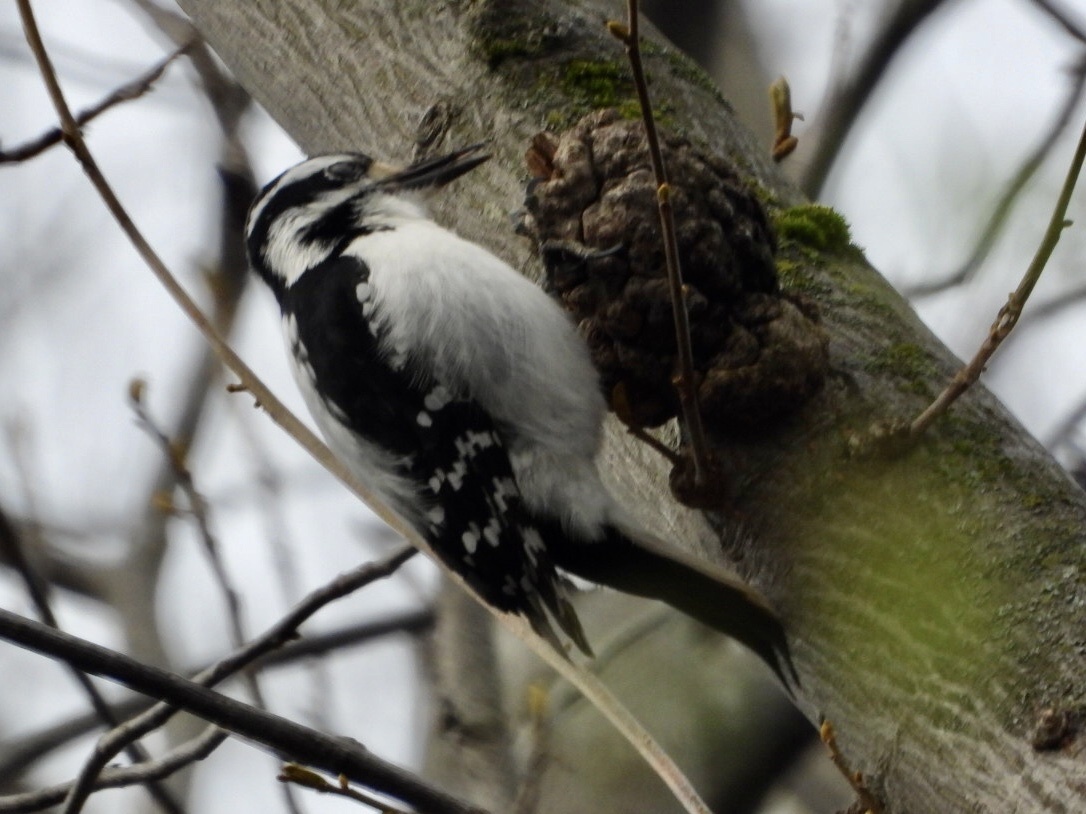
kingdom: Animalia
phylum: Chordata
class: Aves
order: Piciformes
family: Picidae
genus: Leuconotopicus
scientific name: Leuconotopicus villosus
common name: Hairy woodpecker
